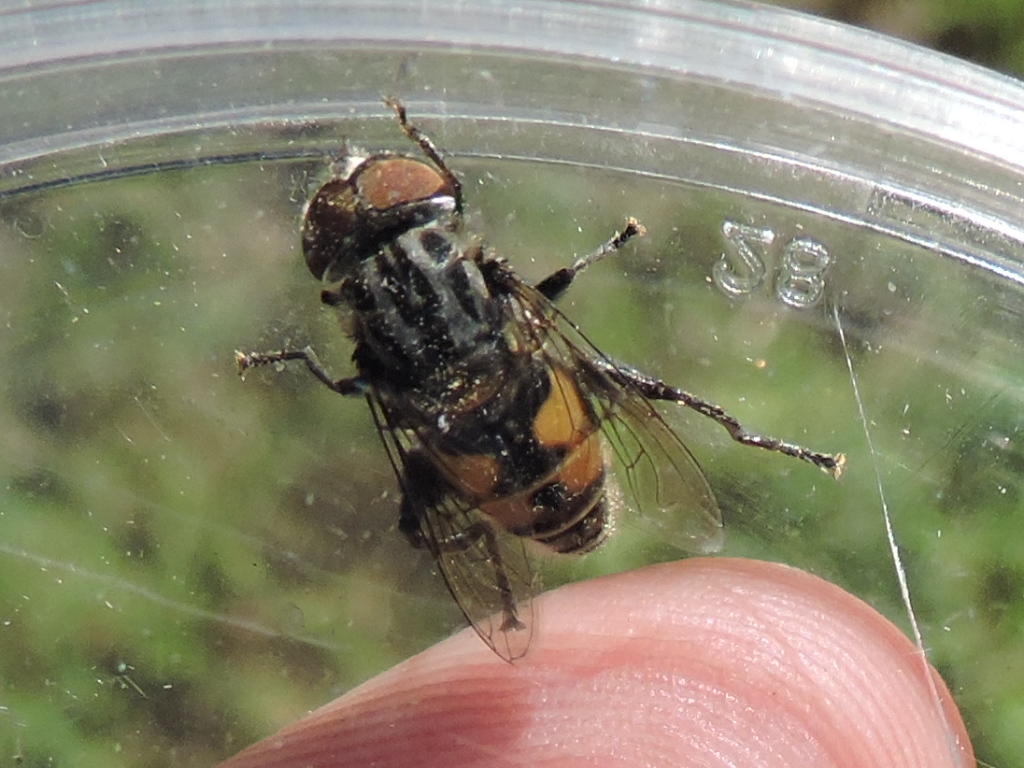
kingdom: Animalia
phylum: Arthropoda
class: Insecta
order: Diptera
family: Syrphidae
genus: Palpada
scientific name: Palpada furcata
